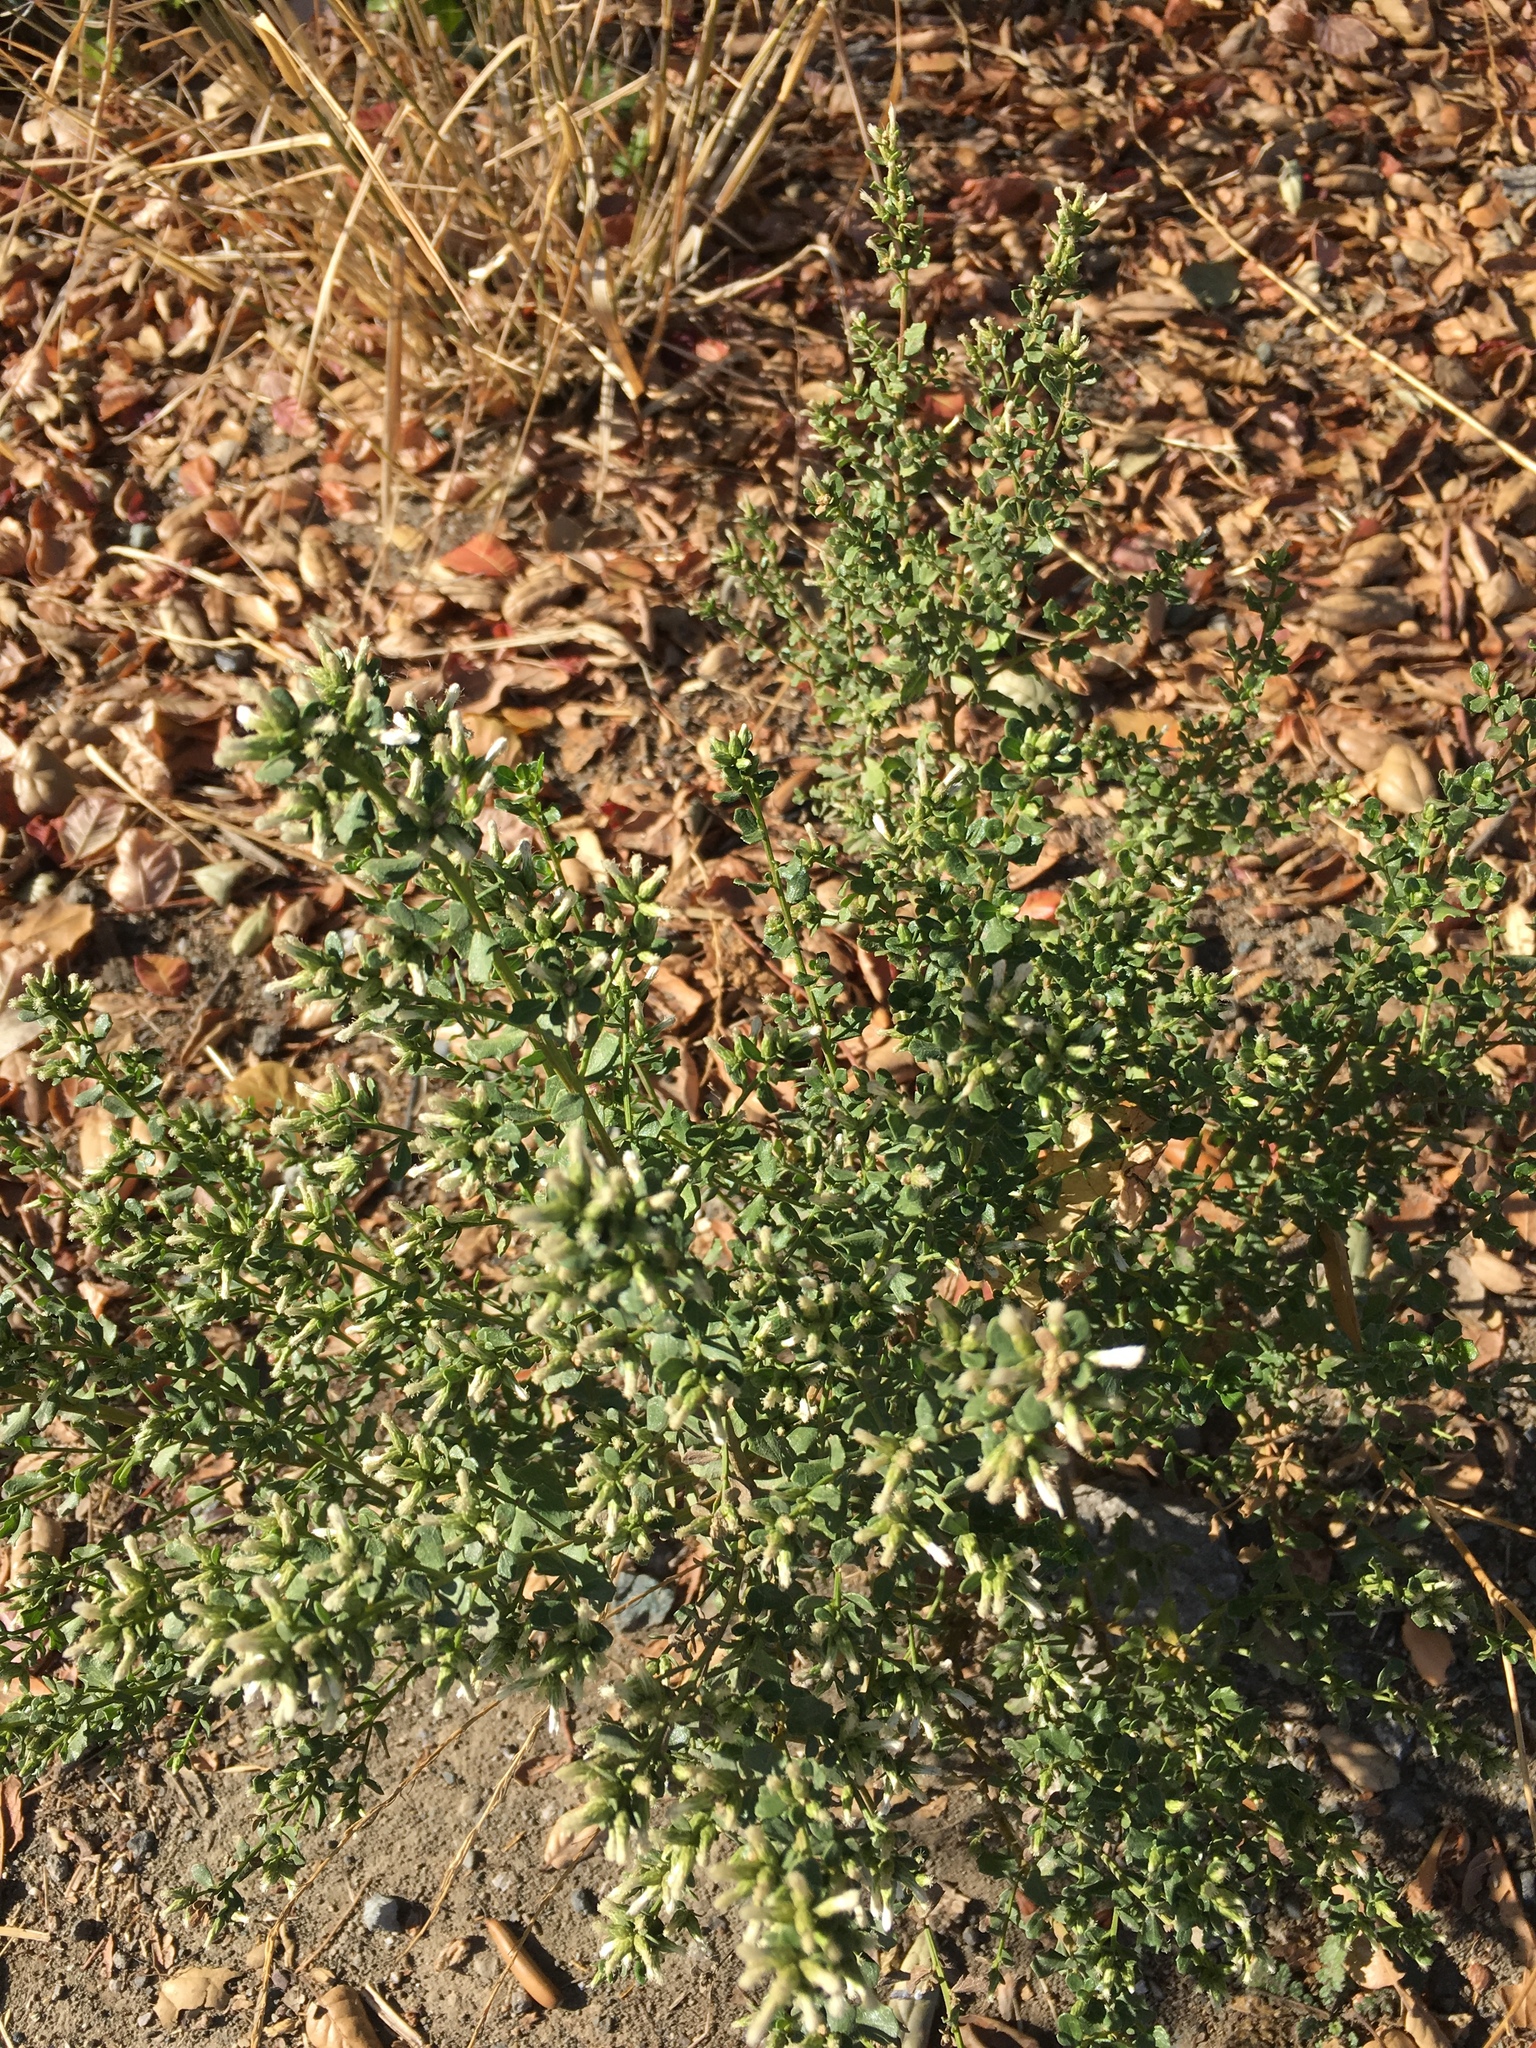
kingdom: Plantae
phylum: Tracheophyta
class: Magnoliopsida
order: Asterales
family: Asteraceae
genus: Baccharis
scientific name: Baccharis pilularis
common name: Coyotebrush
